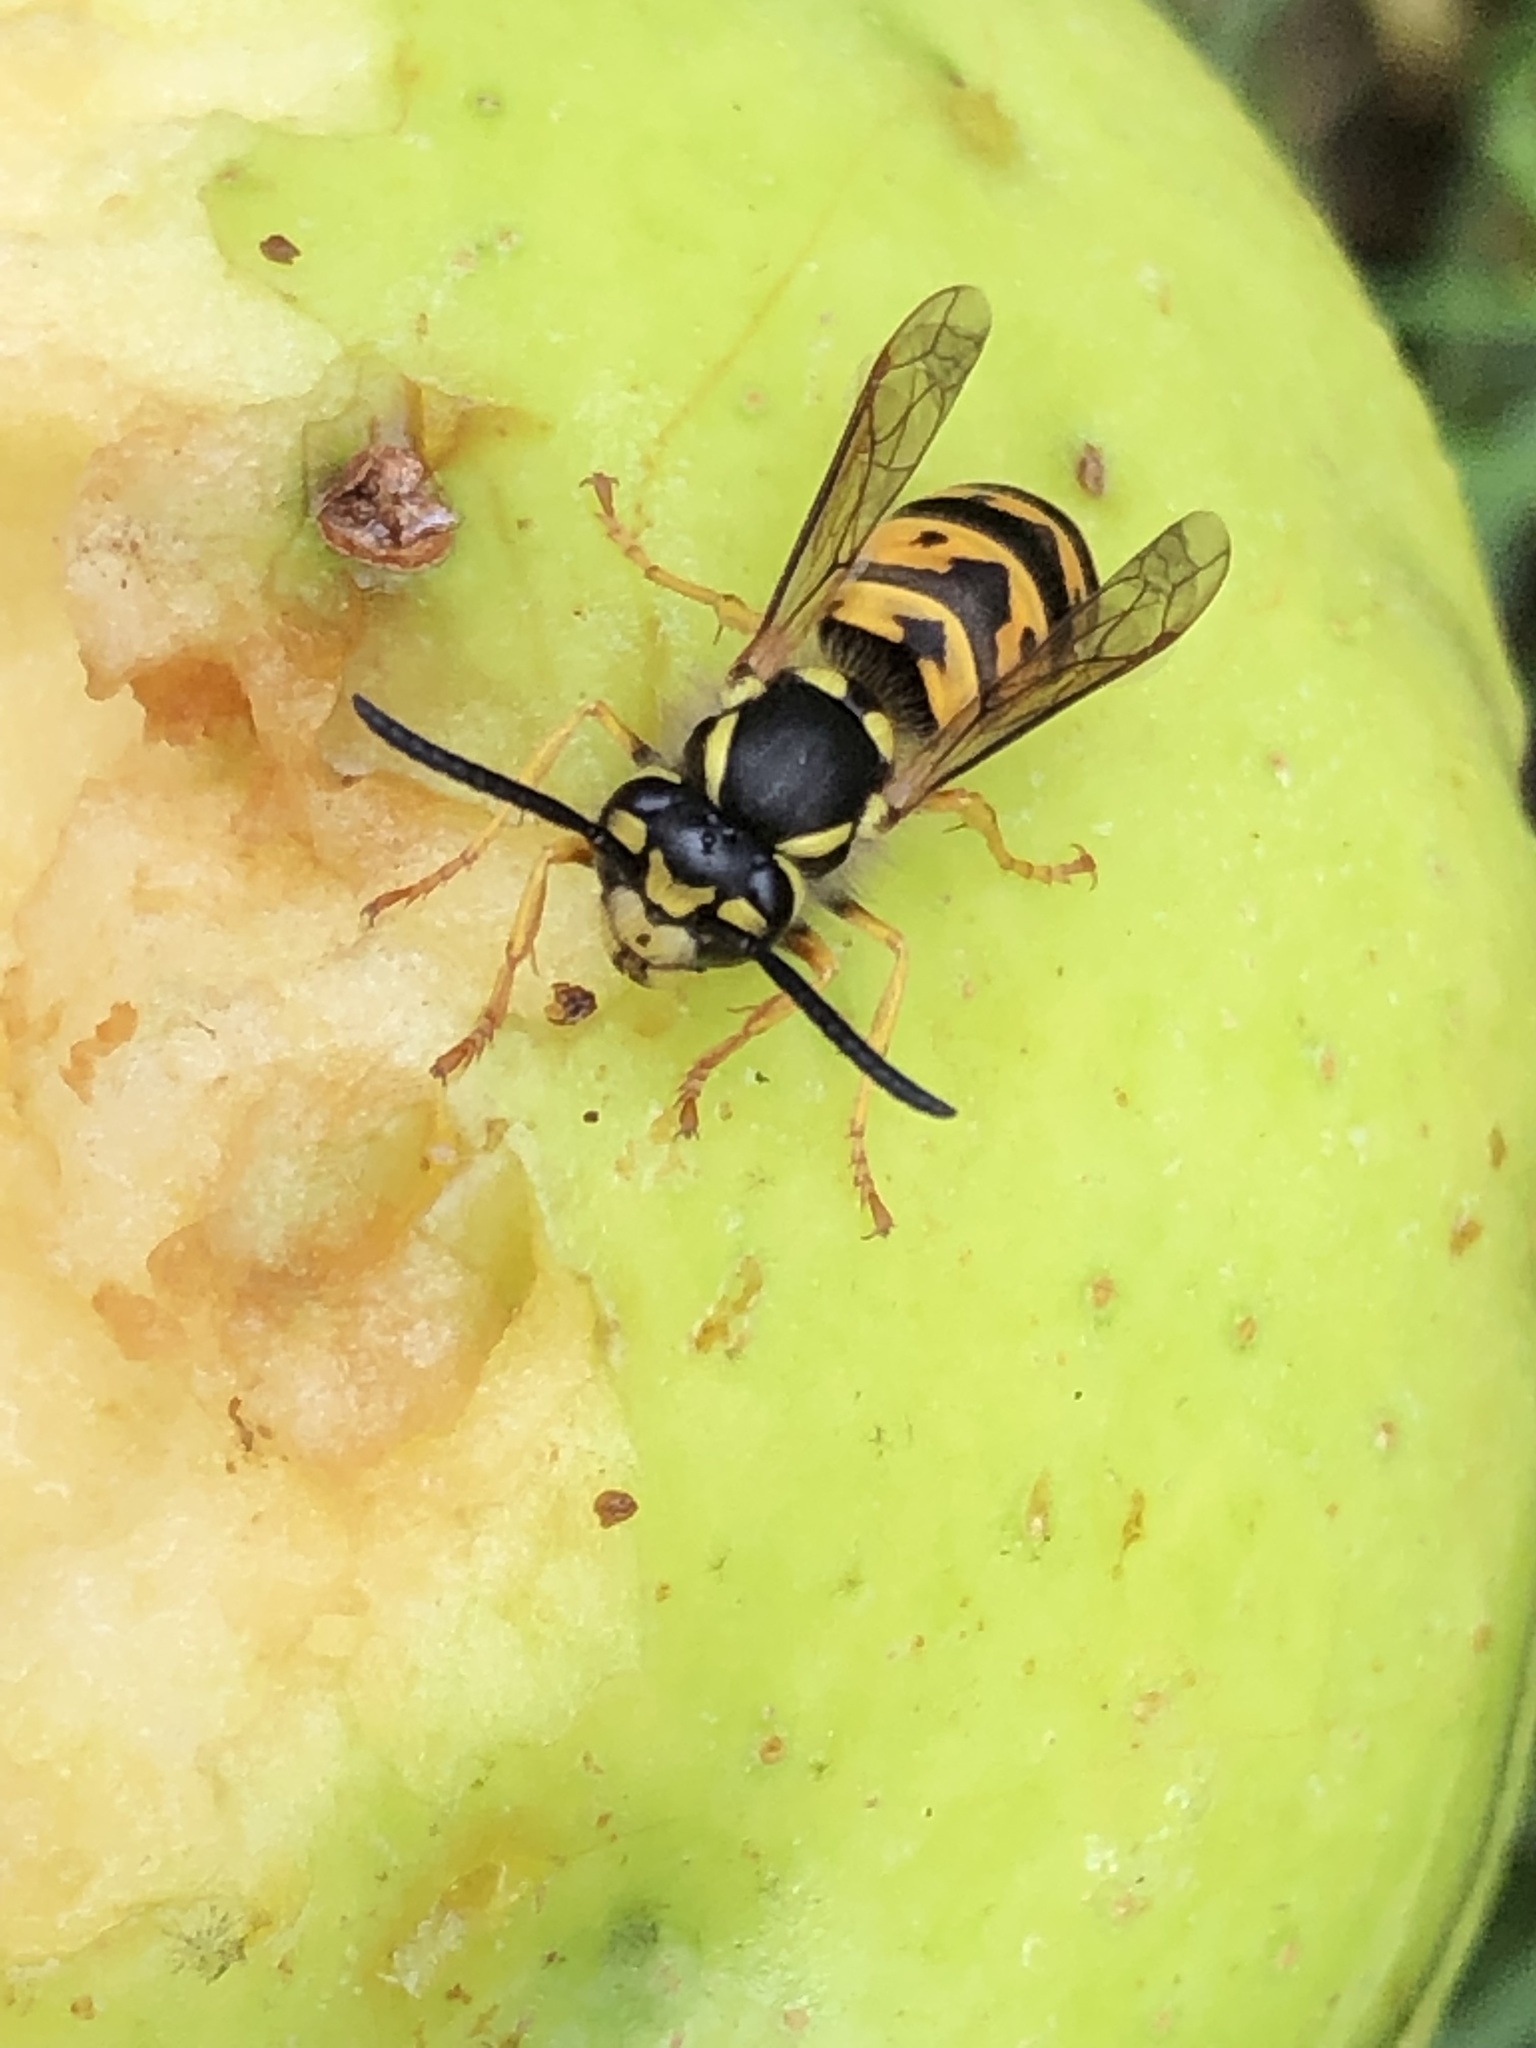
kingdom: Animalia
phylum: Arthropoda
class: Insecta
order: Hymenoptera
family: Vespidae
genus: Vespula
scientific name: Vespula germanica
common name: German wasp
